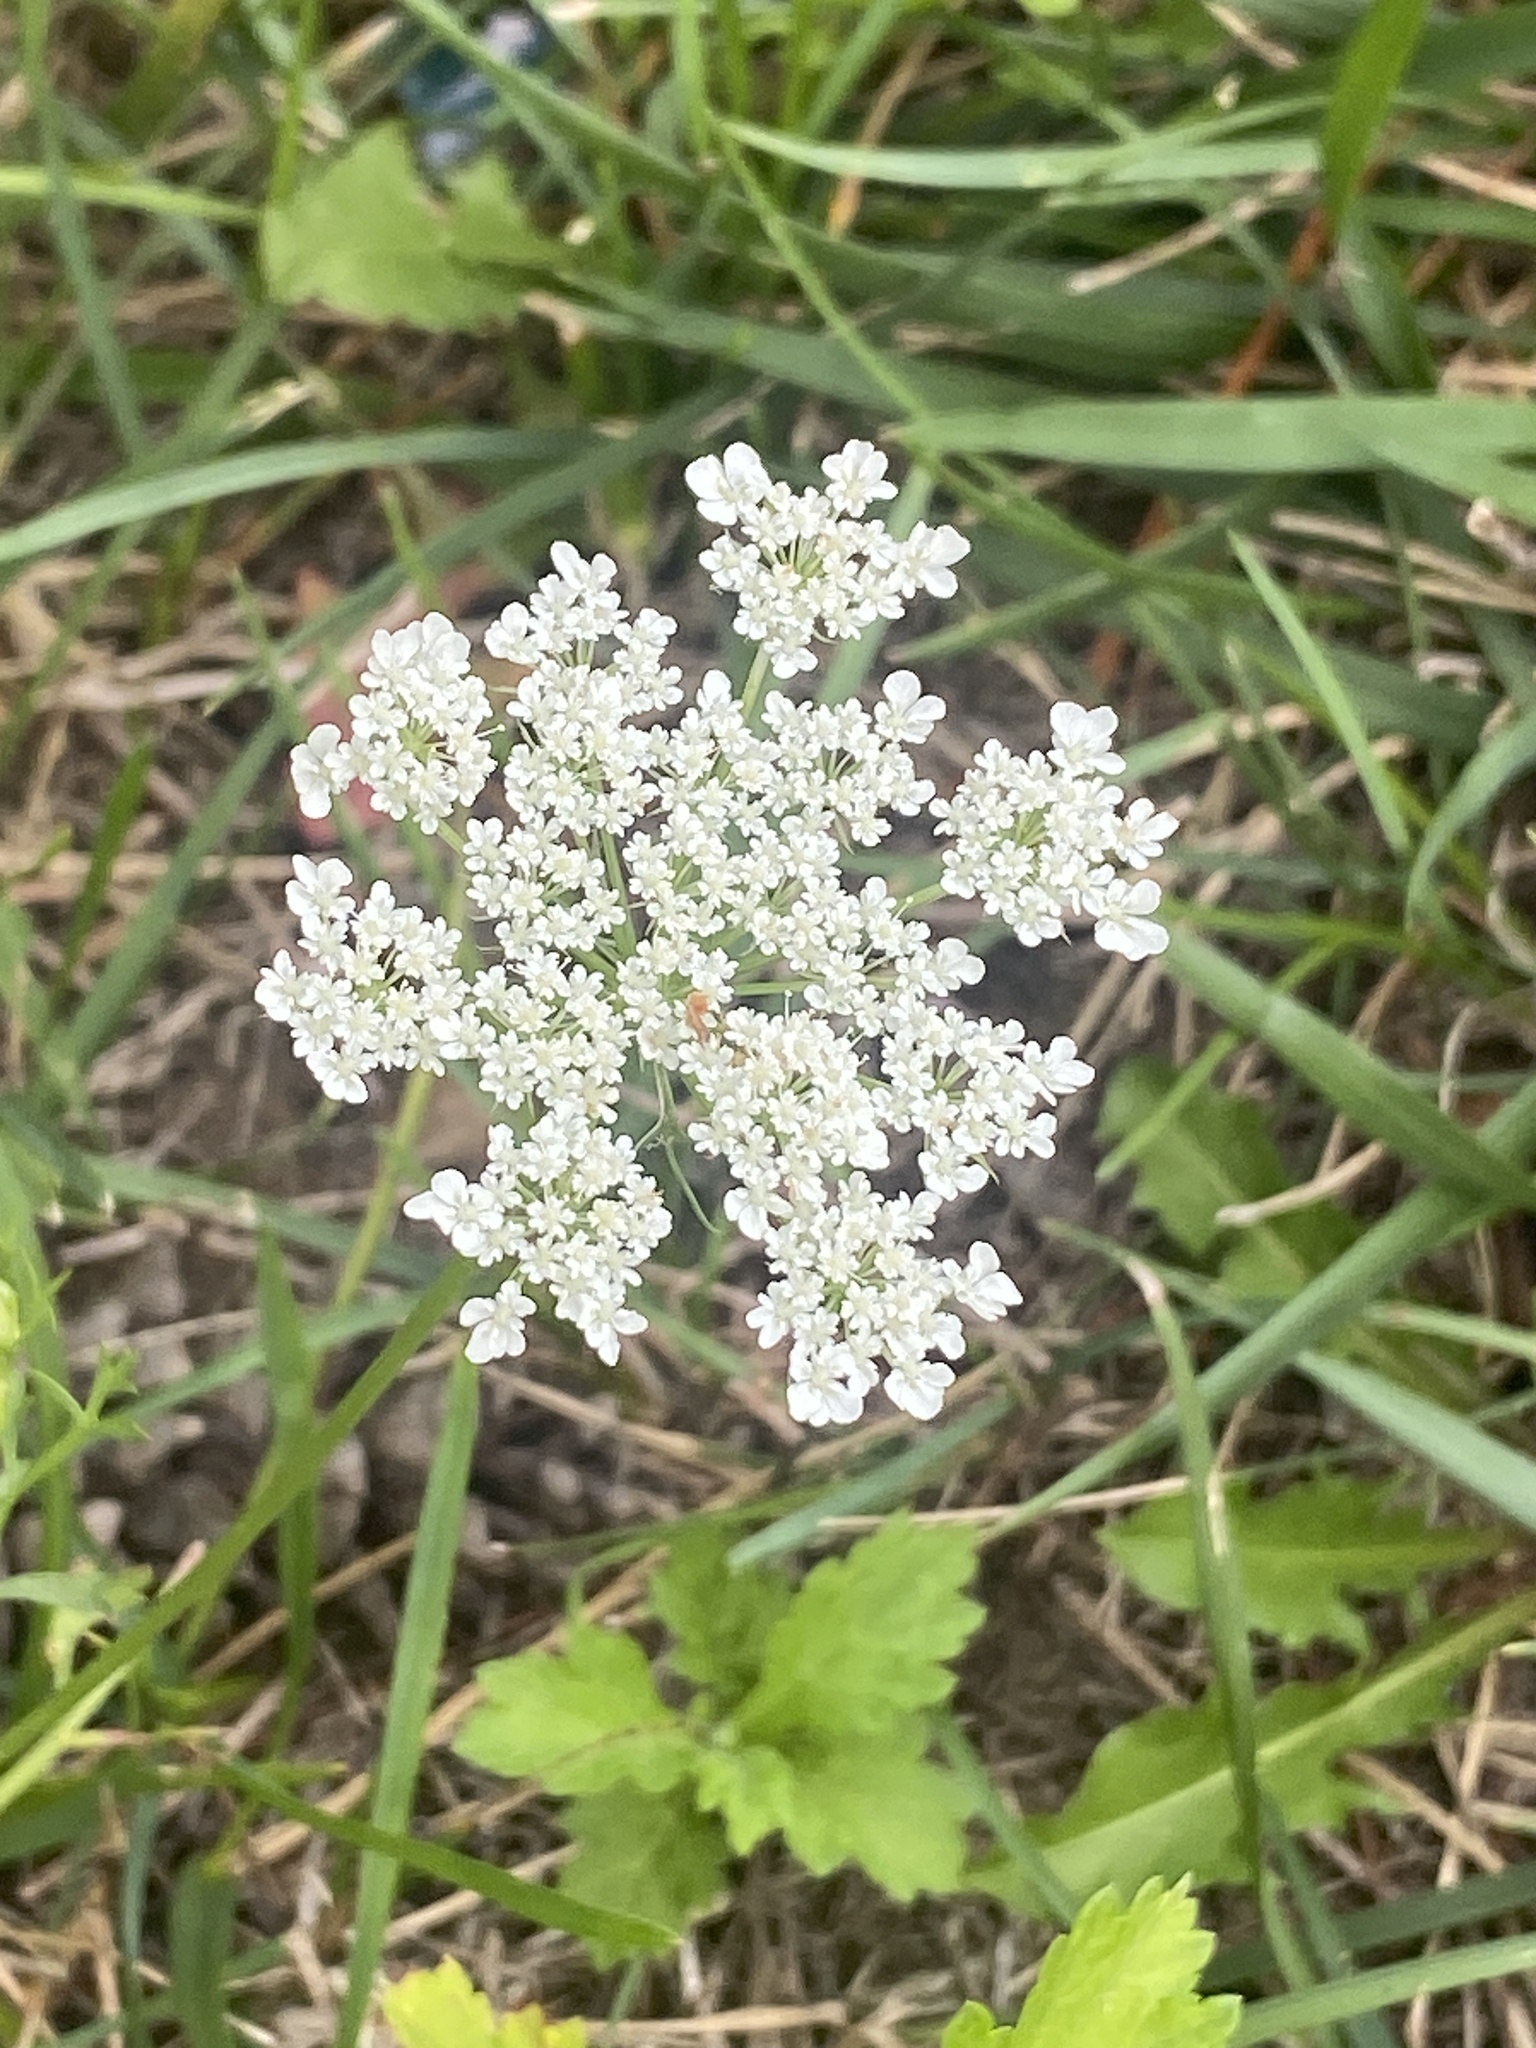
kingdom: Plantae
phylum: Tracheophyta
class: Magnoliopsida
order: Apiales
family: Apiaceae
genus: Daucus
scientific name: Daucus carota
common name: Wild carrot
